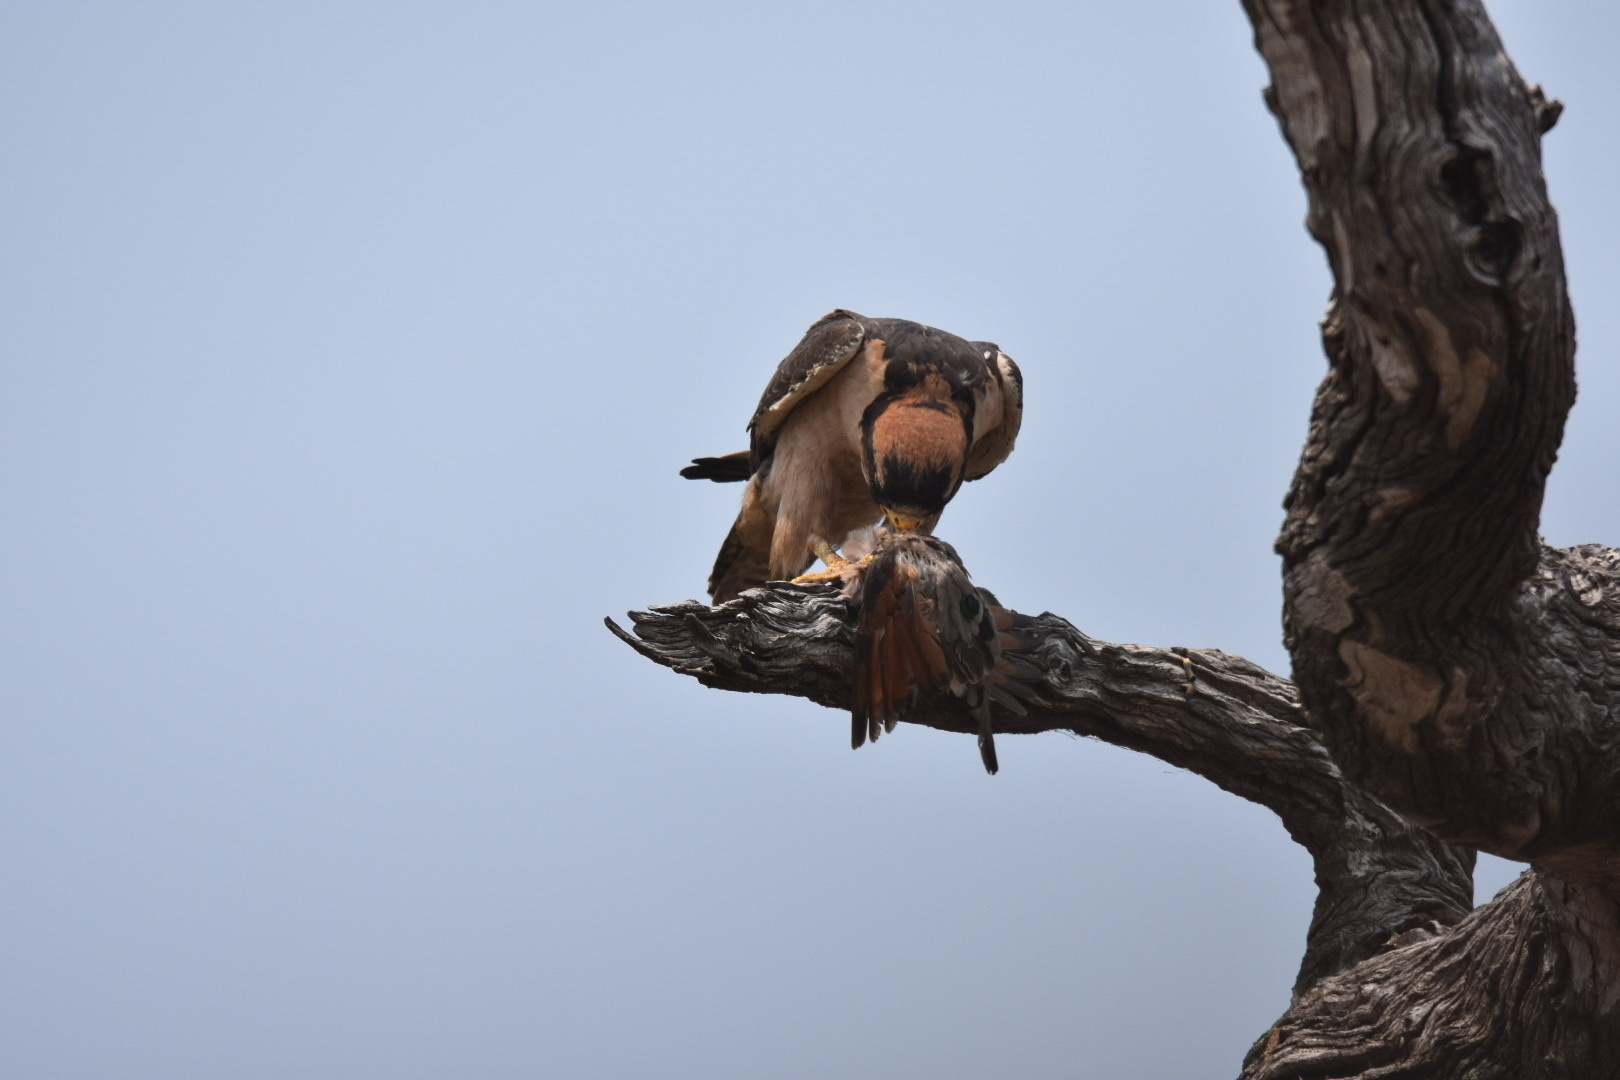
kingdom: Animalia
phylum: Chordata
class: Aves
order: Falconiformes
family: Falconidae
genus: Falco
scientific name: Falco biarmicus
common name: Lanner falcon
